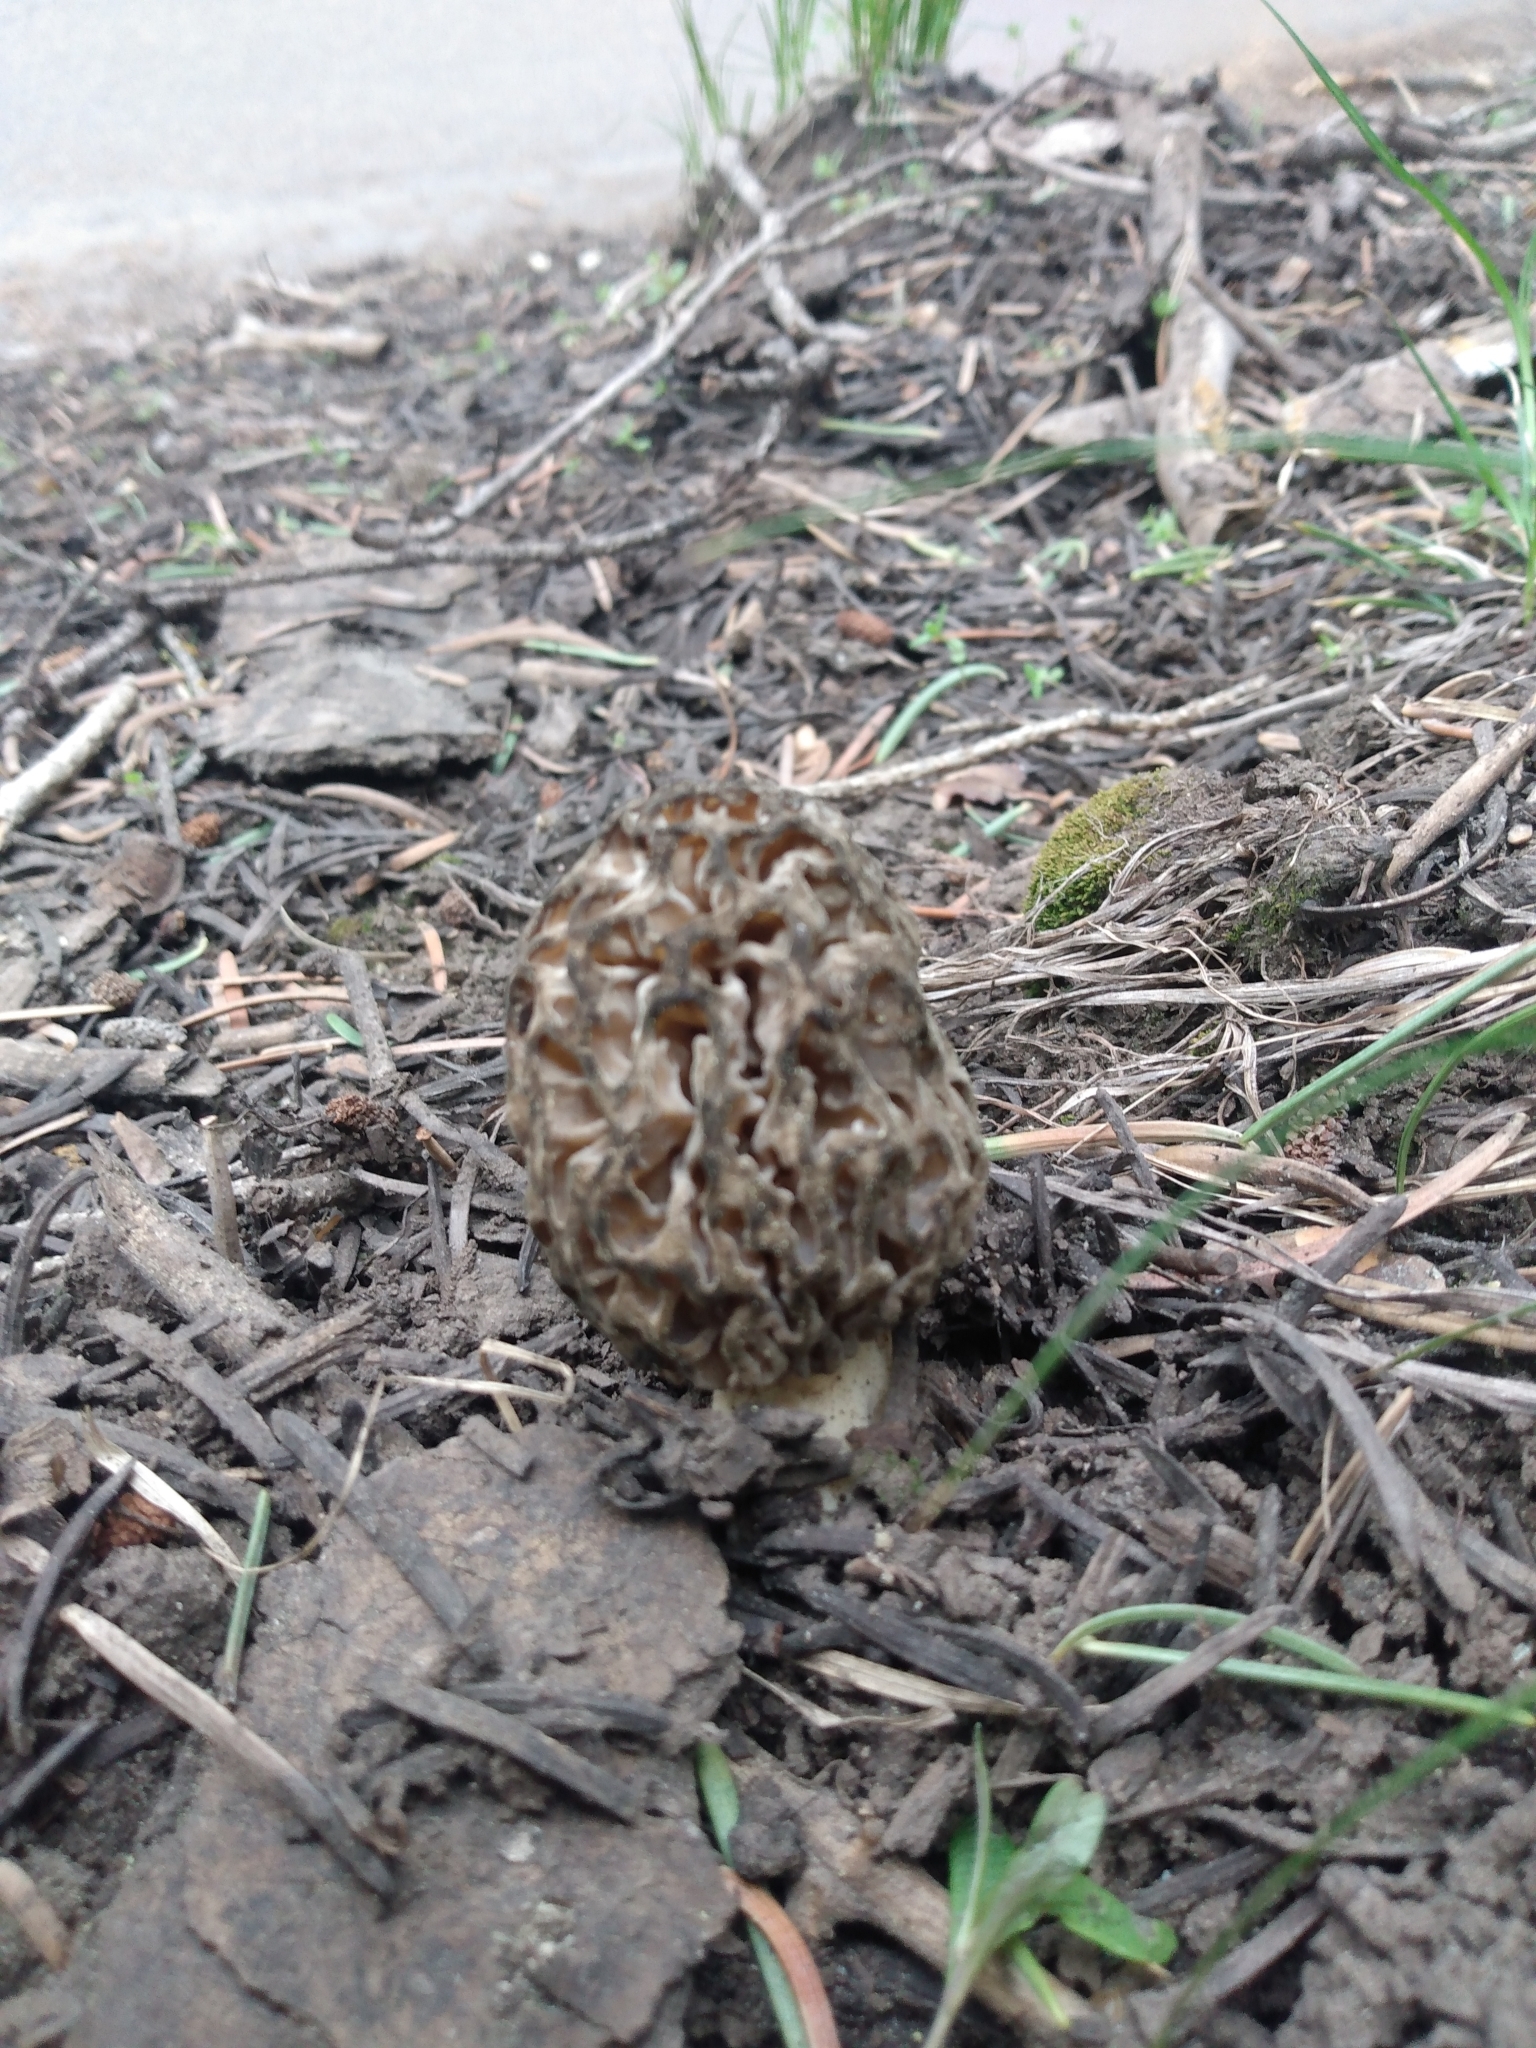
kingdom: Fungi
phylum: Ascomycota
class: Pezizomycetes
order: Pezizales
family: Morchellaceae
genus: Morchella
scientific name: Morchella snyderi
